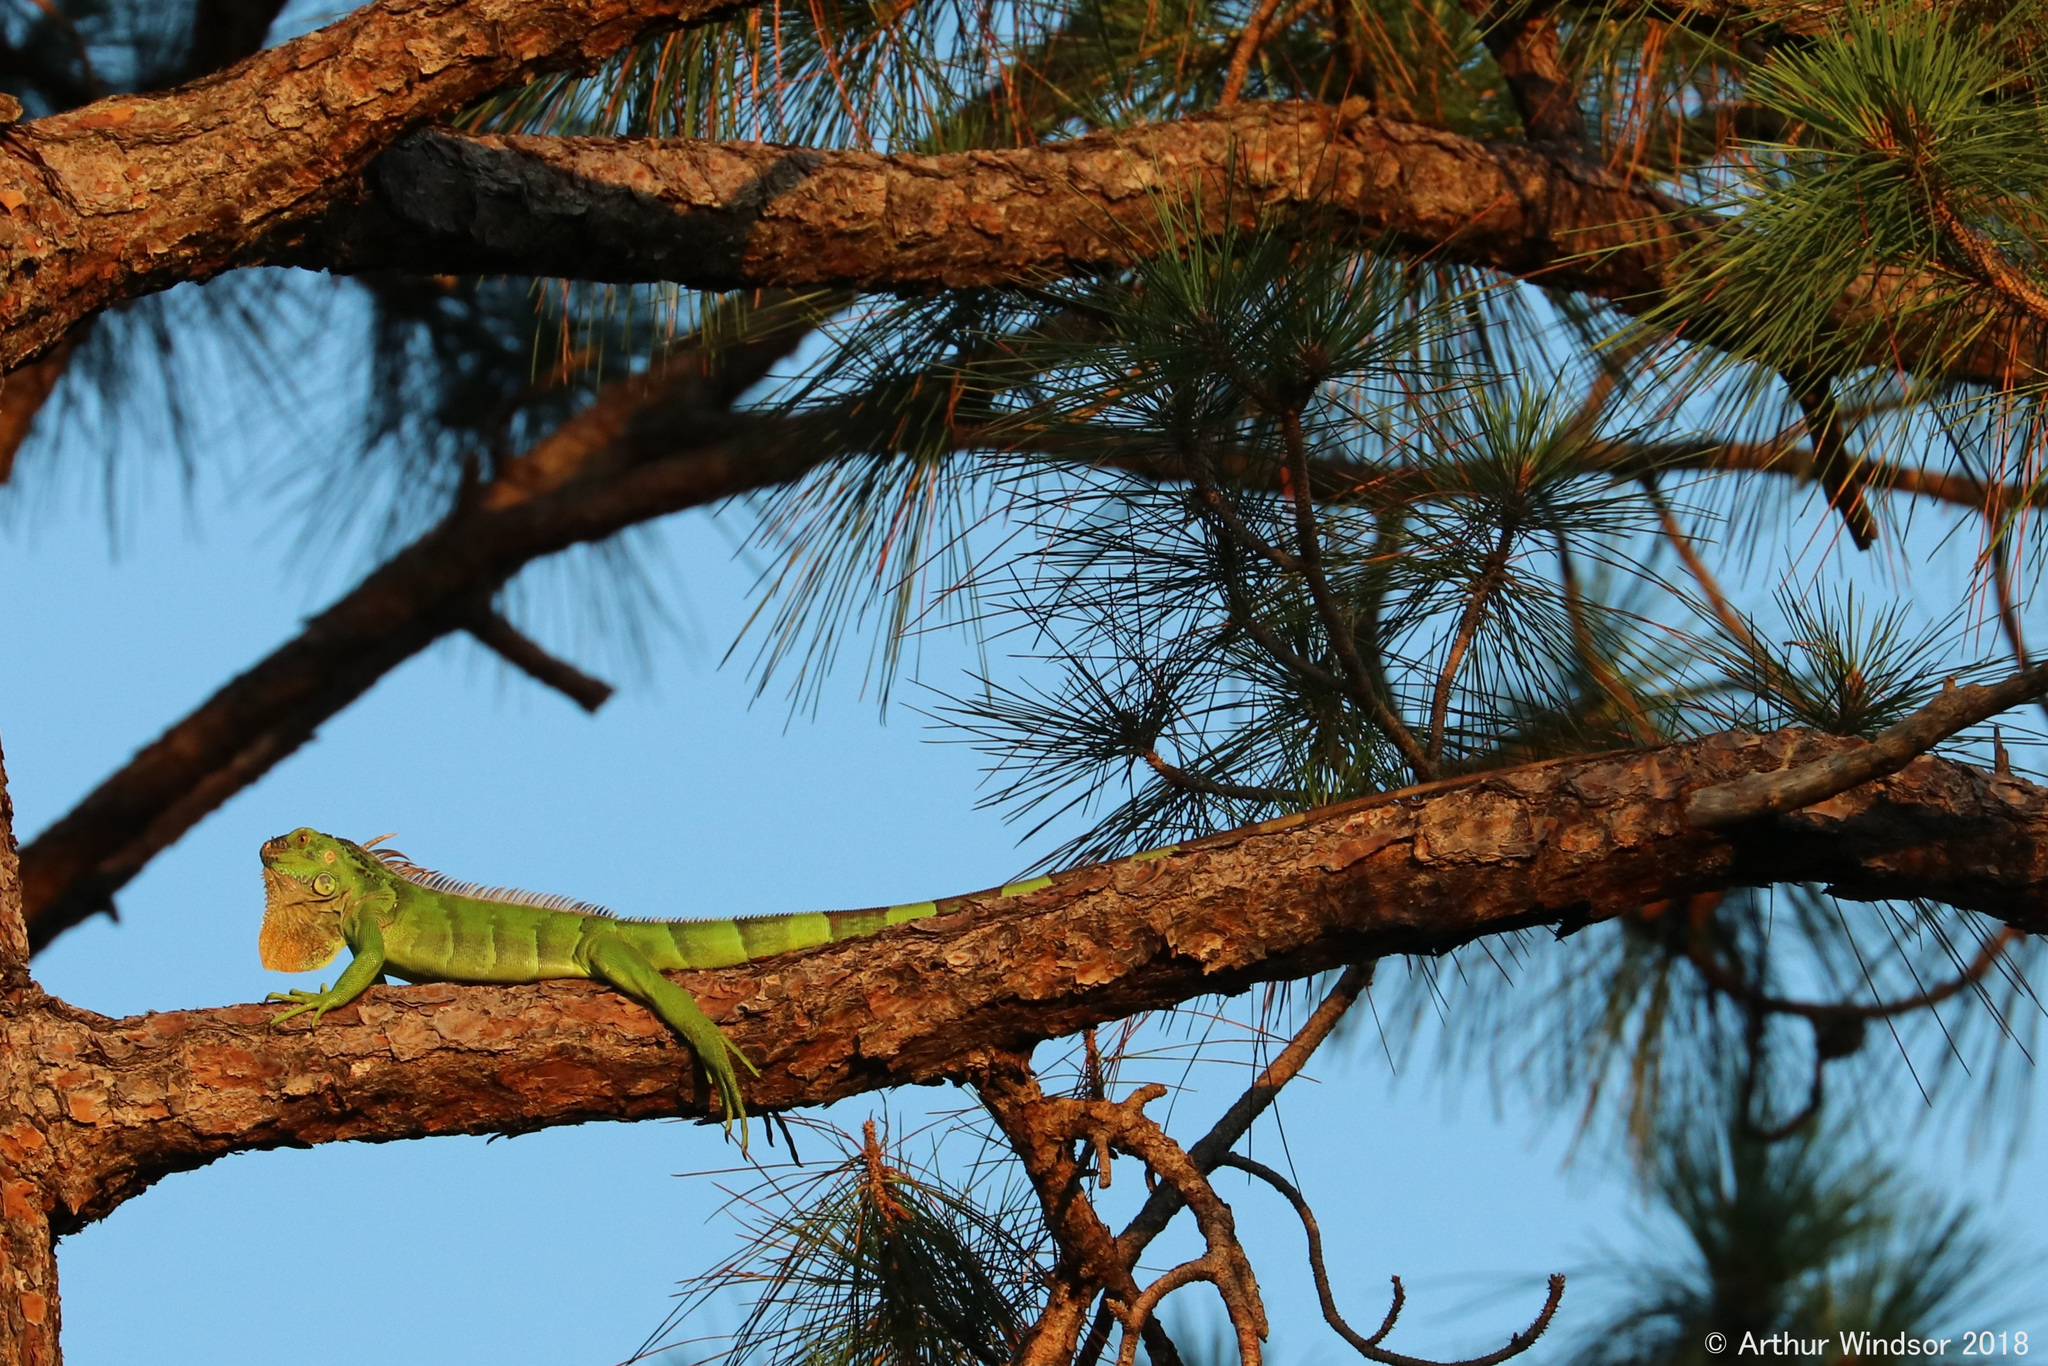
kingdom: Animalia
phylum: Chordata
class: Squamata
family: Iguanidae
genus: Iguana
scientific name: Iguana iguana
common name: Green iguana
